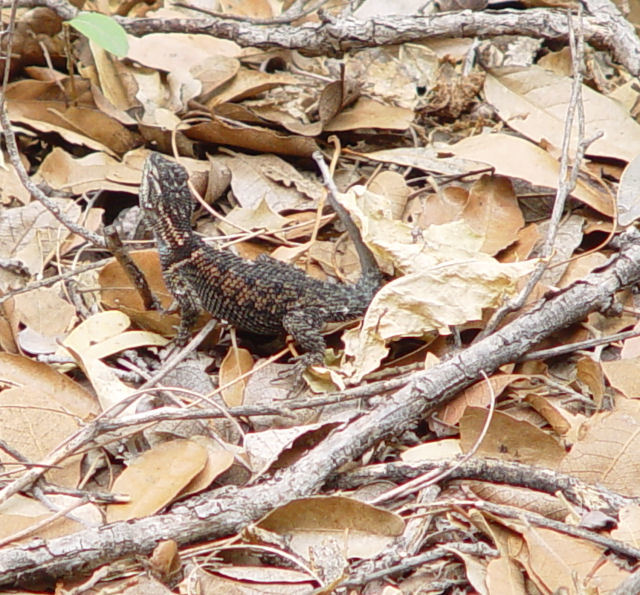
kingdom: Animalia
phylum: Chordata
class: Squamata
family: Phrynosomatidae
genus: Sceloporus
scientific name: Sceloporus jarrovii
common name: Yarrow's spiny lizard
